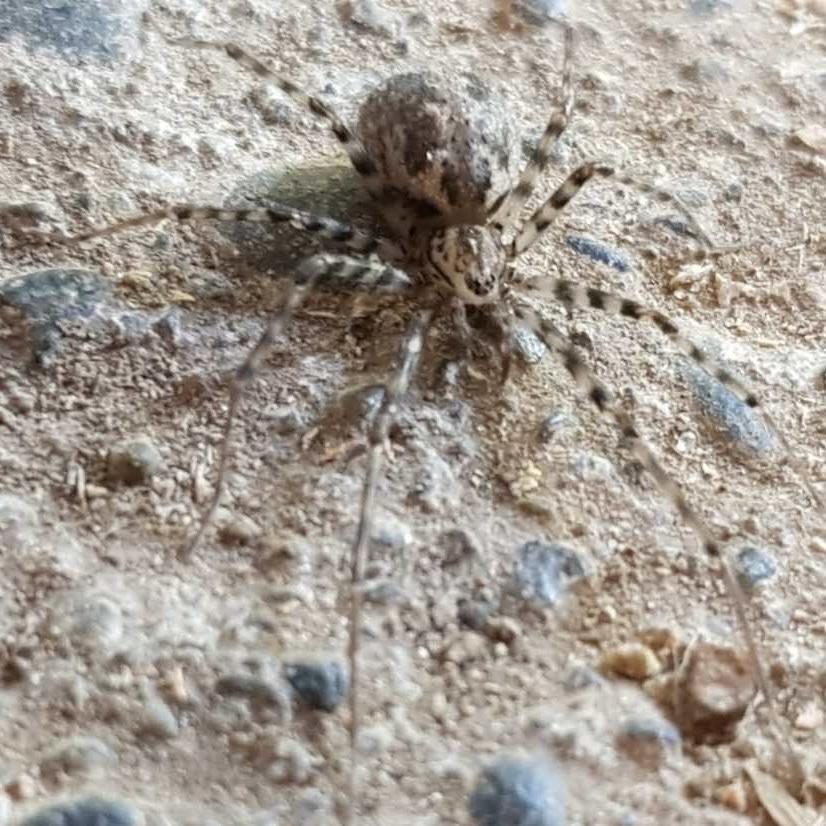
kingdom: Animalia
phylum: Arthropoda
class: Arachnida
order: Araneae
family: Stiphidiidae
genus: Stiphidion
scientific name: Stiphidion facetum
